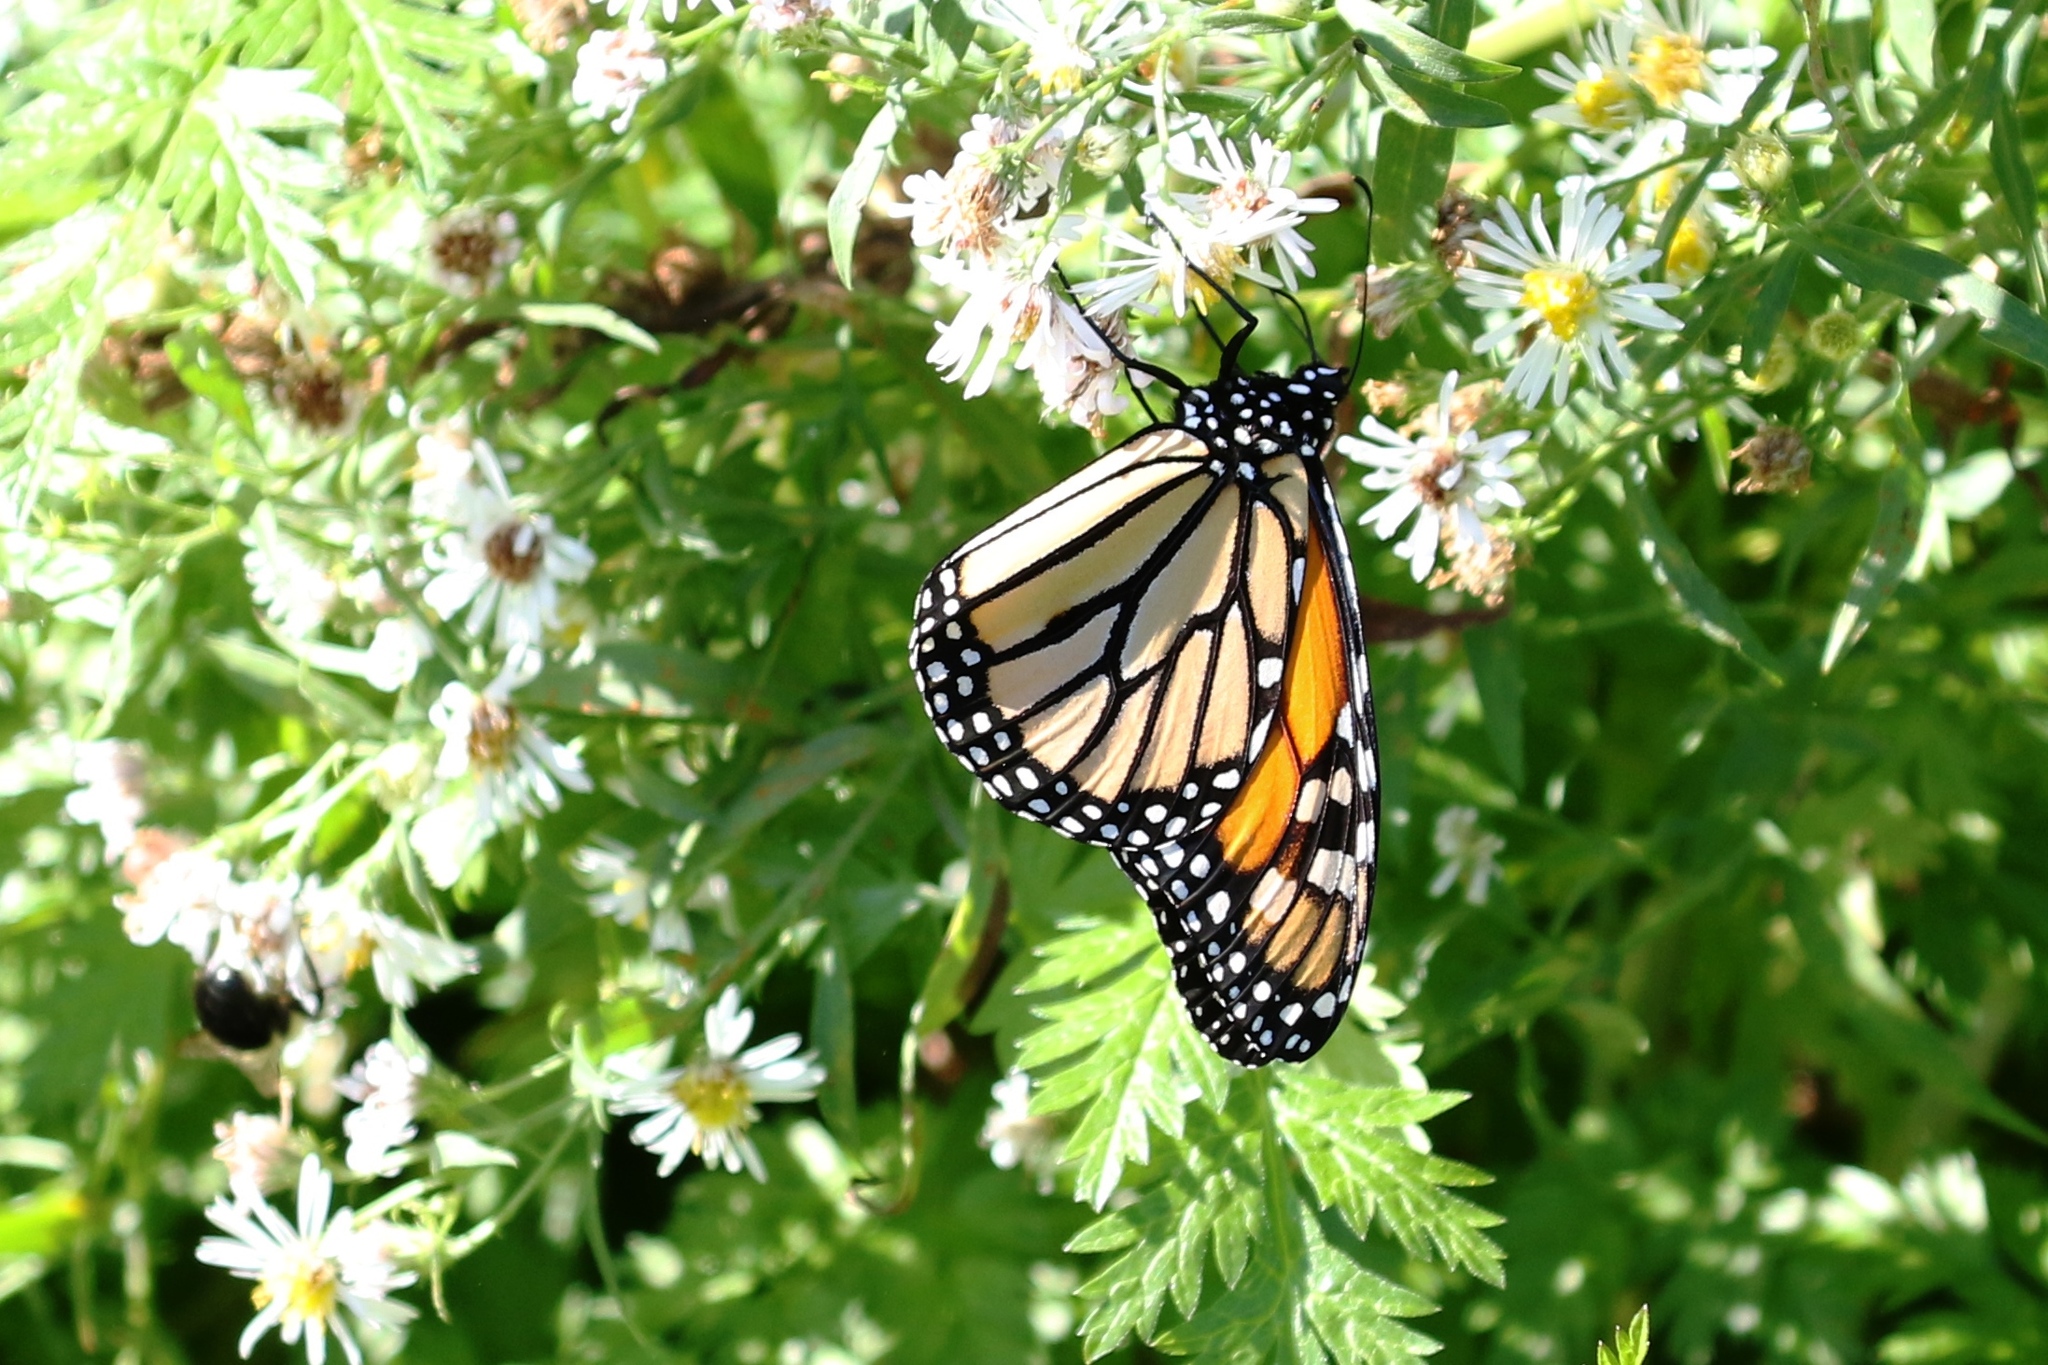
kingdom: Animalia
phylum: Arthropoda
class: Insecta
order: Lepidoptera
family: Nymphalidae
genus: Danaus
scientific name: Danaus plexippus
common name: Monarch
